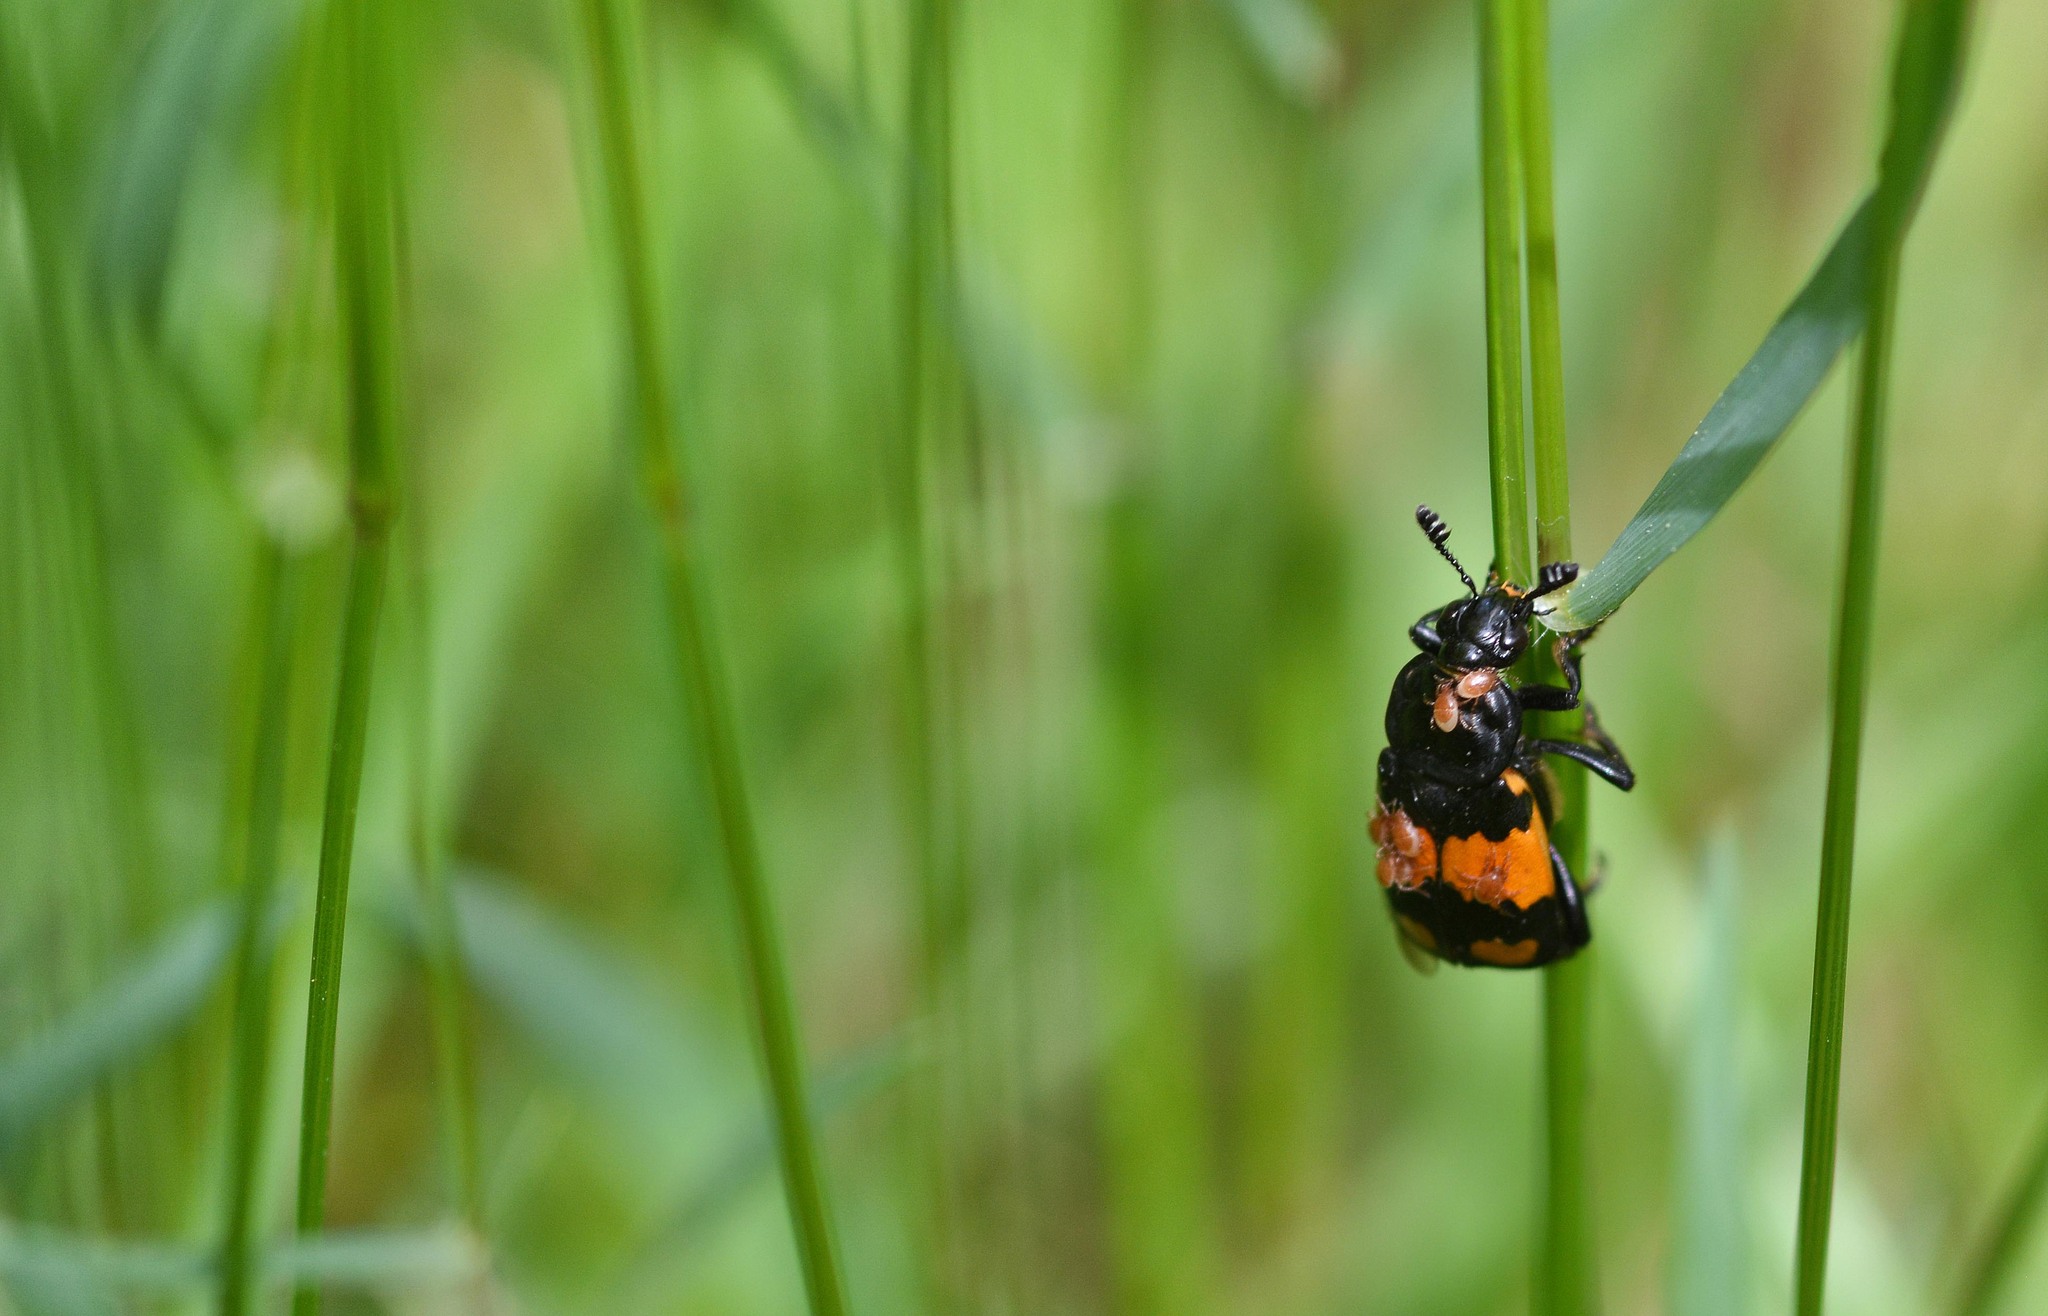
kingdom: Animalia
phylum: Arthropoda
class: Insecta
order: Coleoptera
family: Staphylinidae
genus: Nicrophorus
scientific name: Nicrophorus vespilloides
